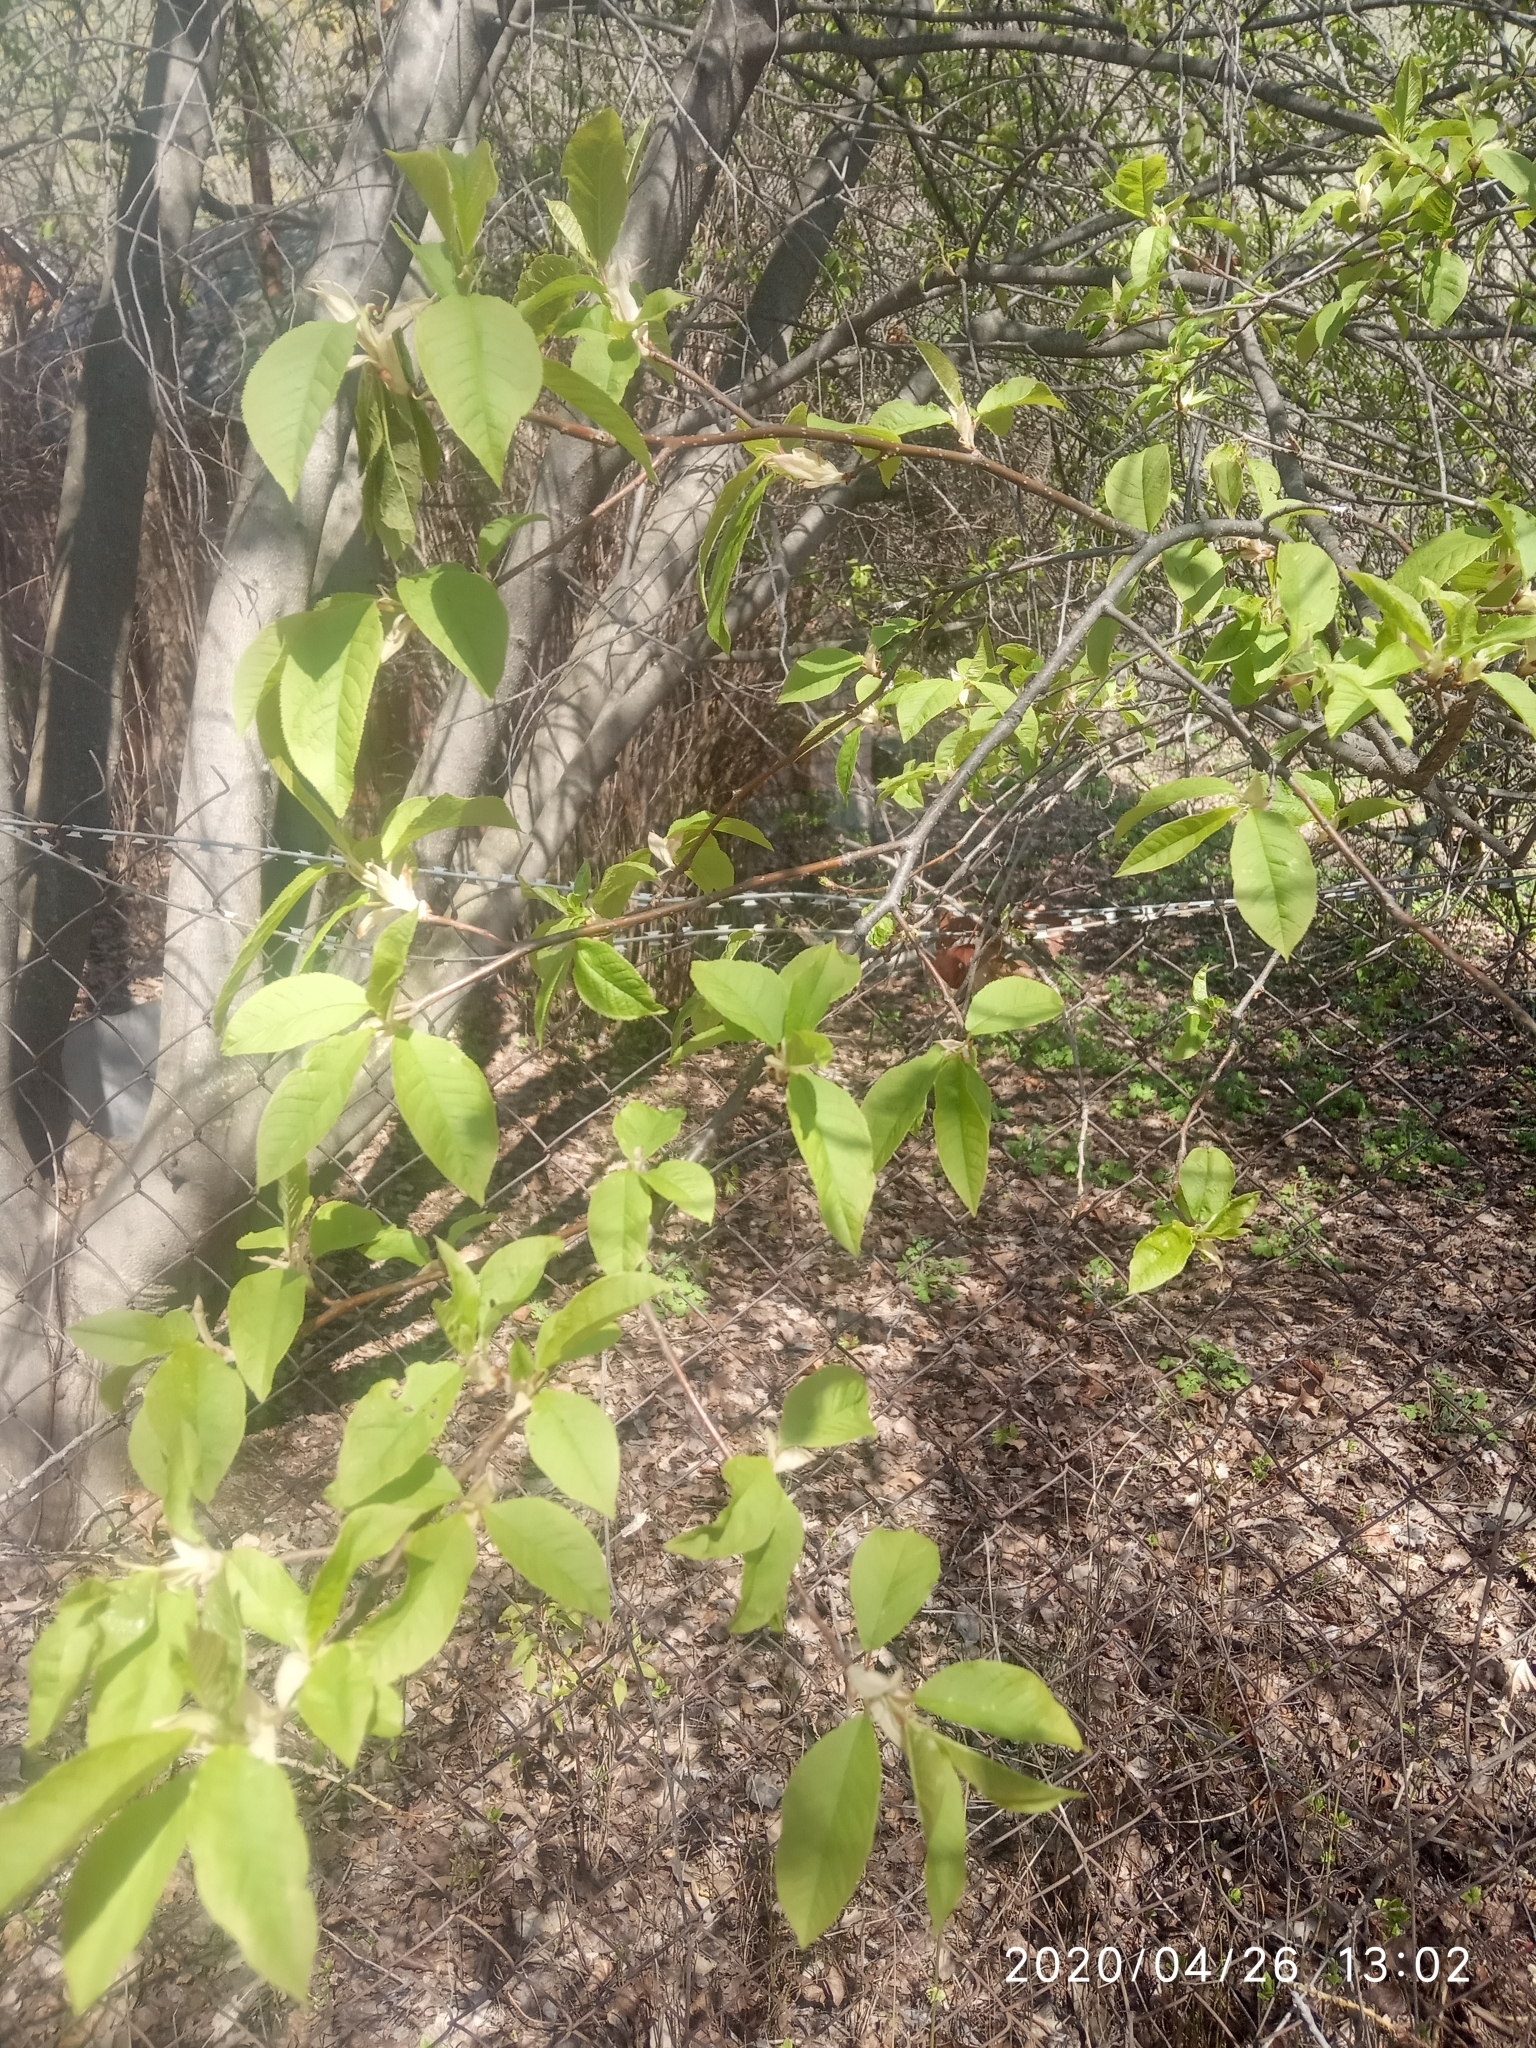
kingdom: Plantae
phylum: Tracheophyta
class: Magnoliopsida
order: Rosales
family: Rosaceae
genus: Prunus
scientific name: Prunus padus
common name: Bird cherry
